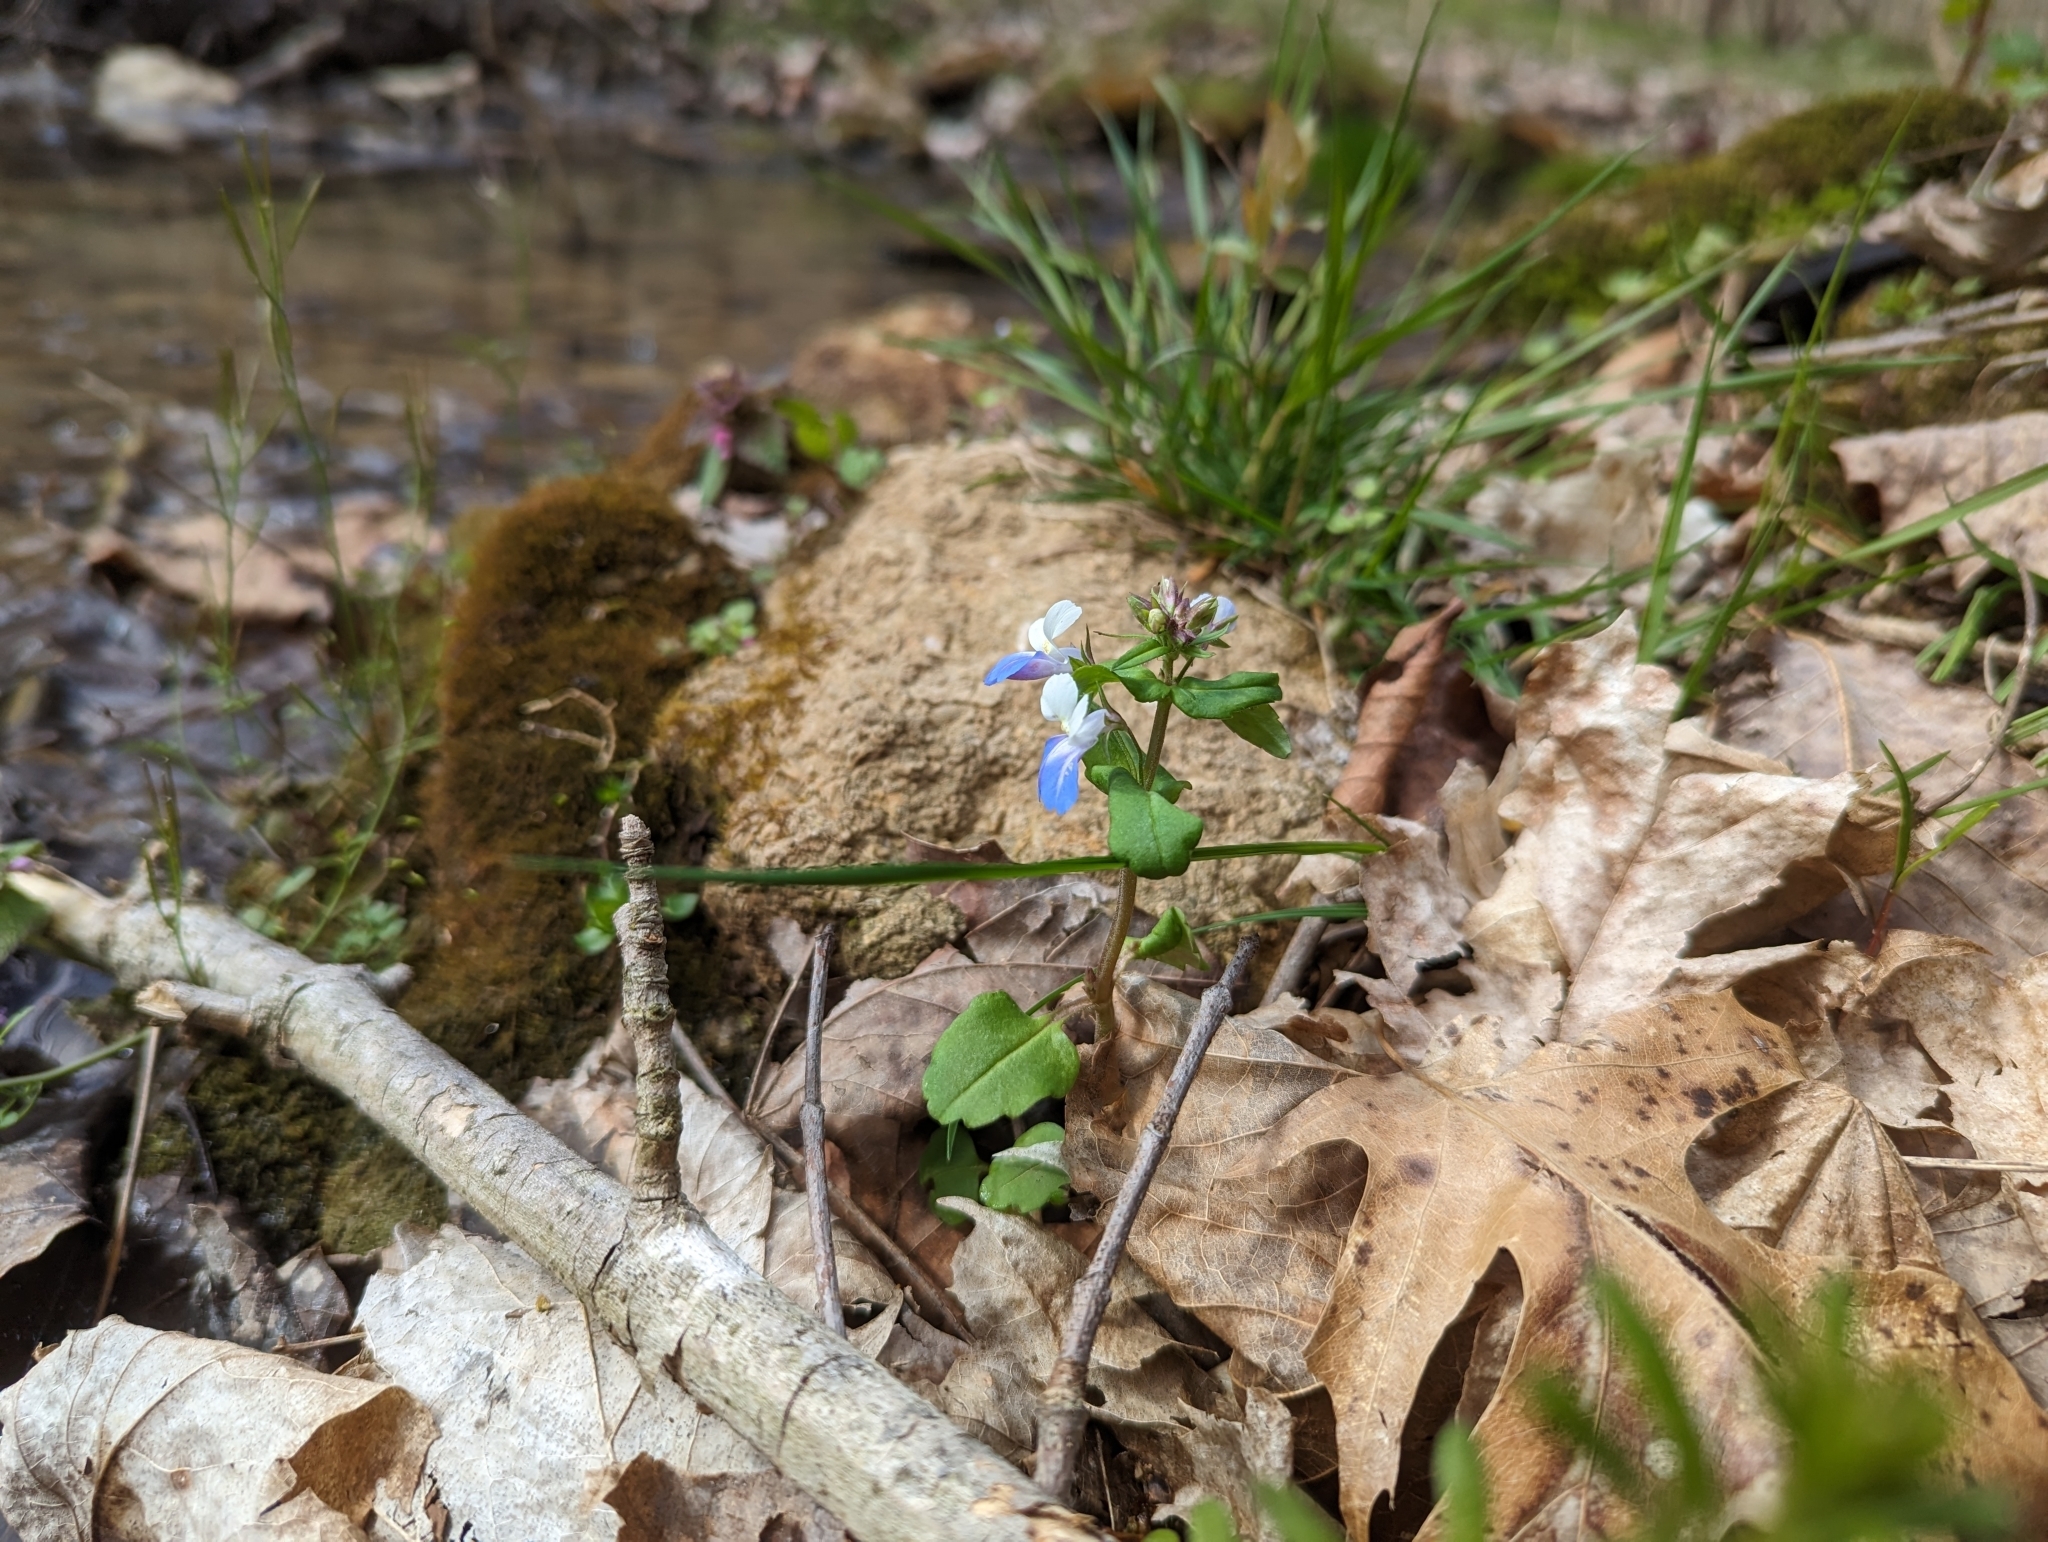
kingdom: Plantae
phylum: Tracheophyta
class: Magnoliopsida
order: Lamiales
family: Plantaginaceae
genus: Collinsia
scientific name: Collinsia verna
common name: Broad-leaved collinsia
